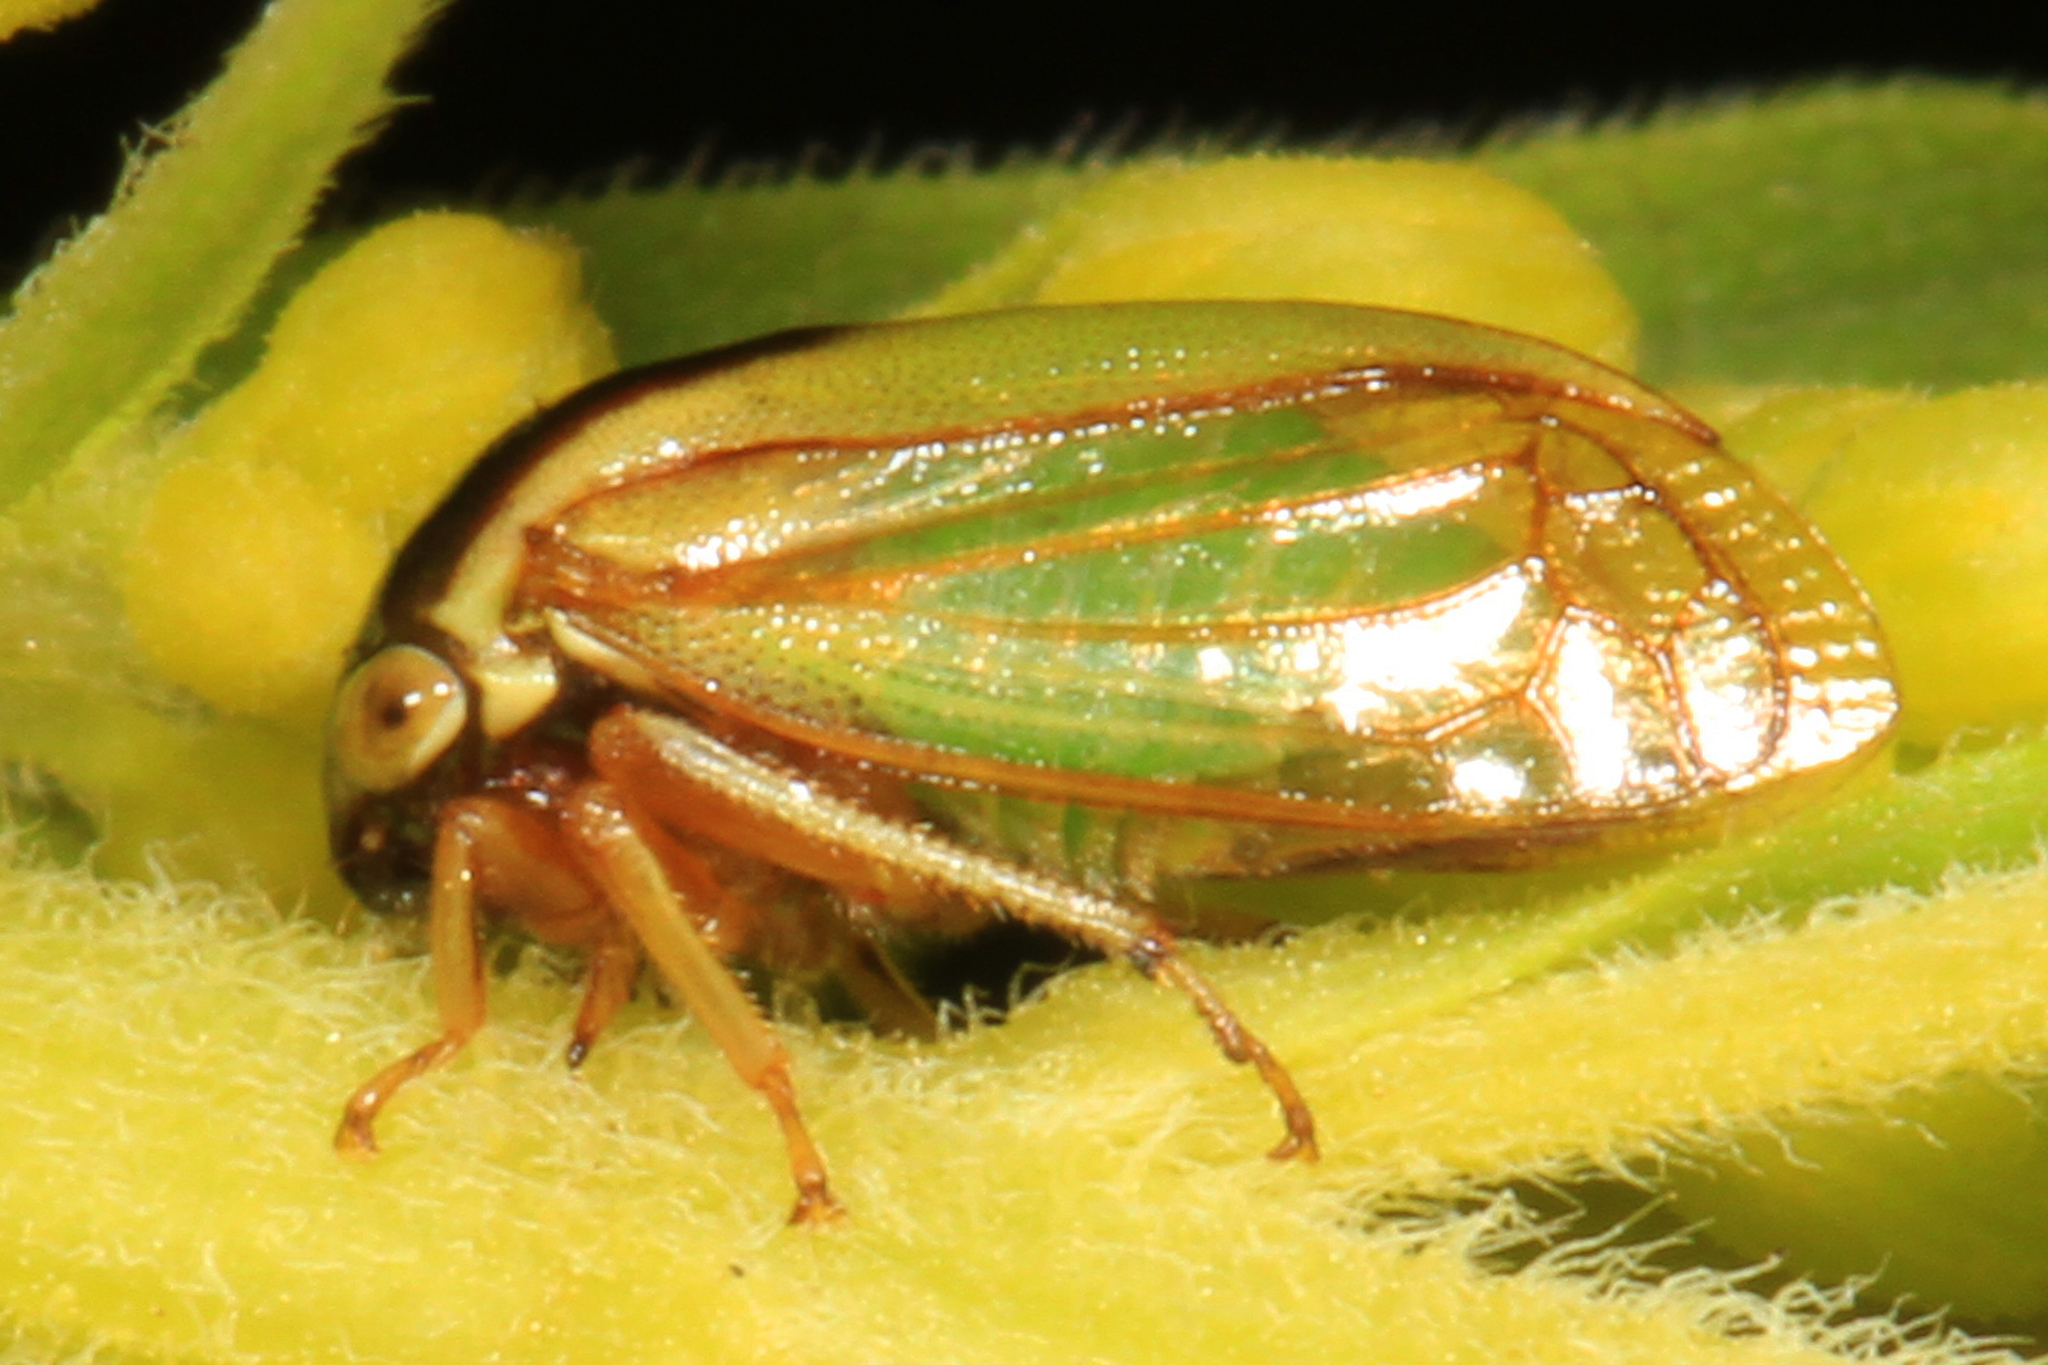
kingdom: Animalia
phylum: Arthropoda
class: Insecta
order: Hemiptera
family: Membracidae
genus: Acutalis
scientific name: Acutalis tartarea
